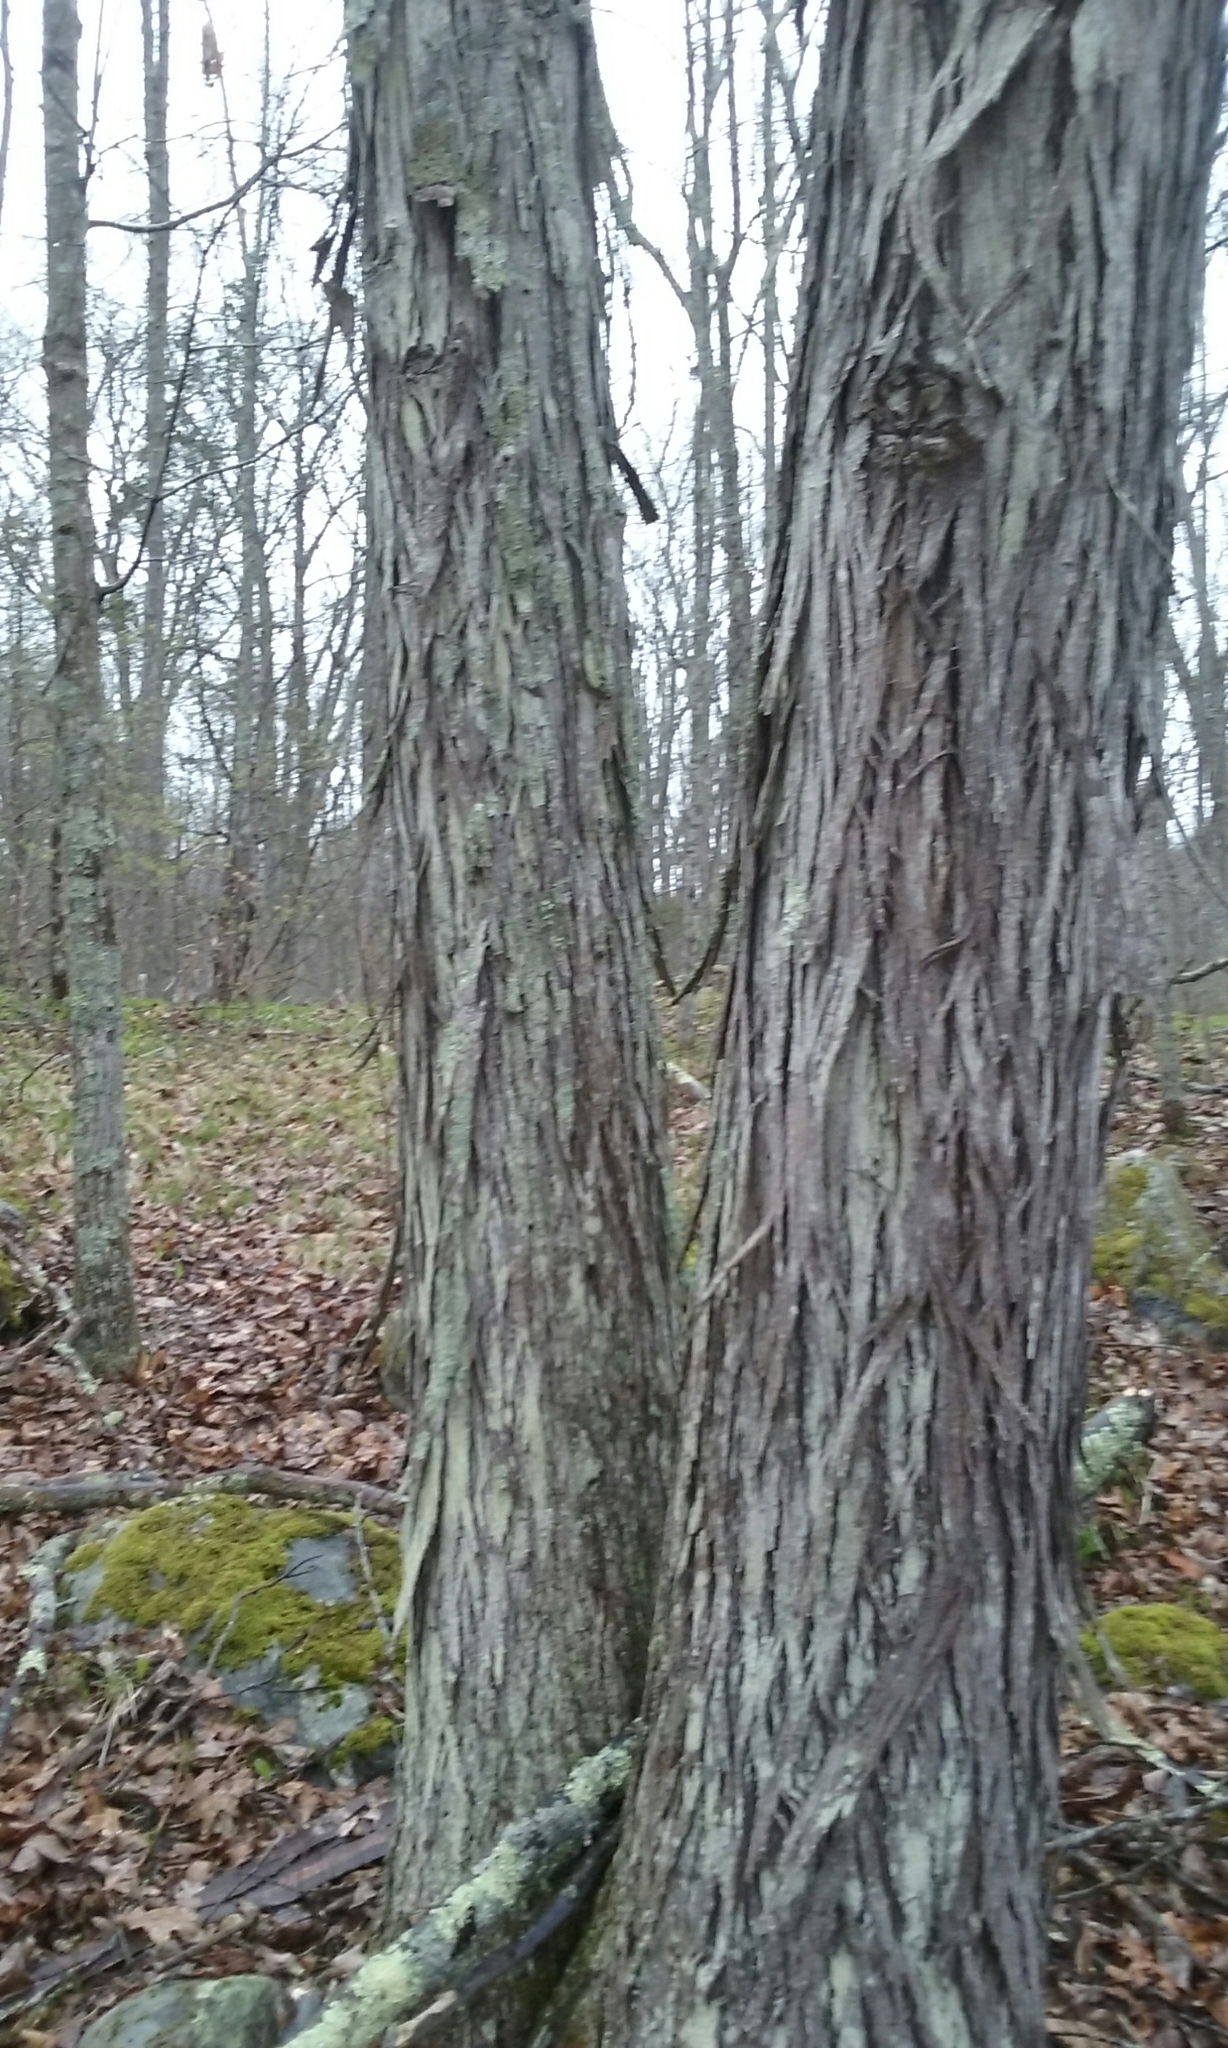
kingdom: Plantae
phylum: Tracheophyta
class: Magnoliopsida
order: Fagales
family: Juglandaceae
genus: Carya
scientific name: Carya ovata
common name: Shagbark hickory
